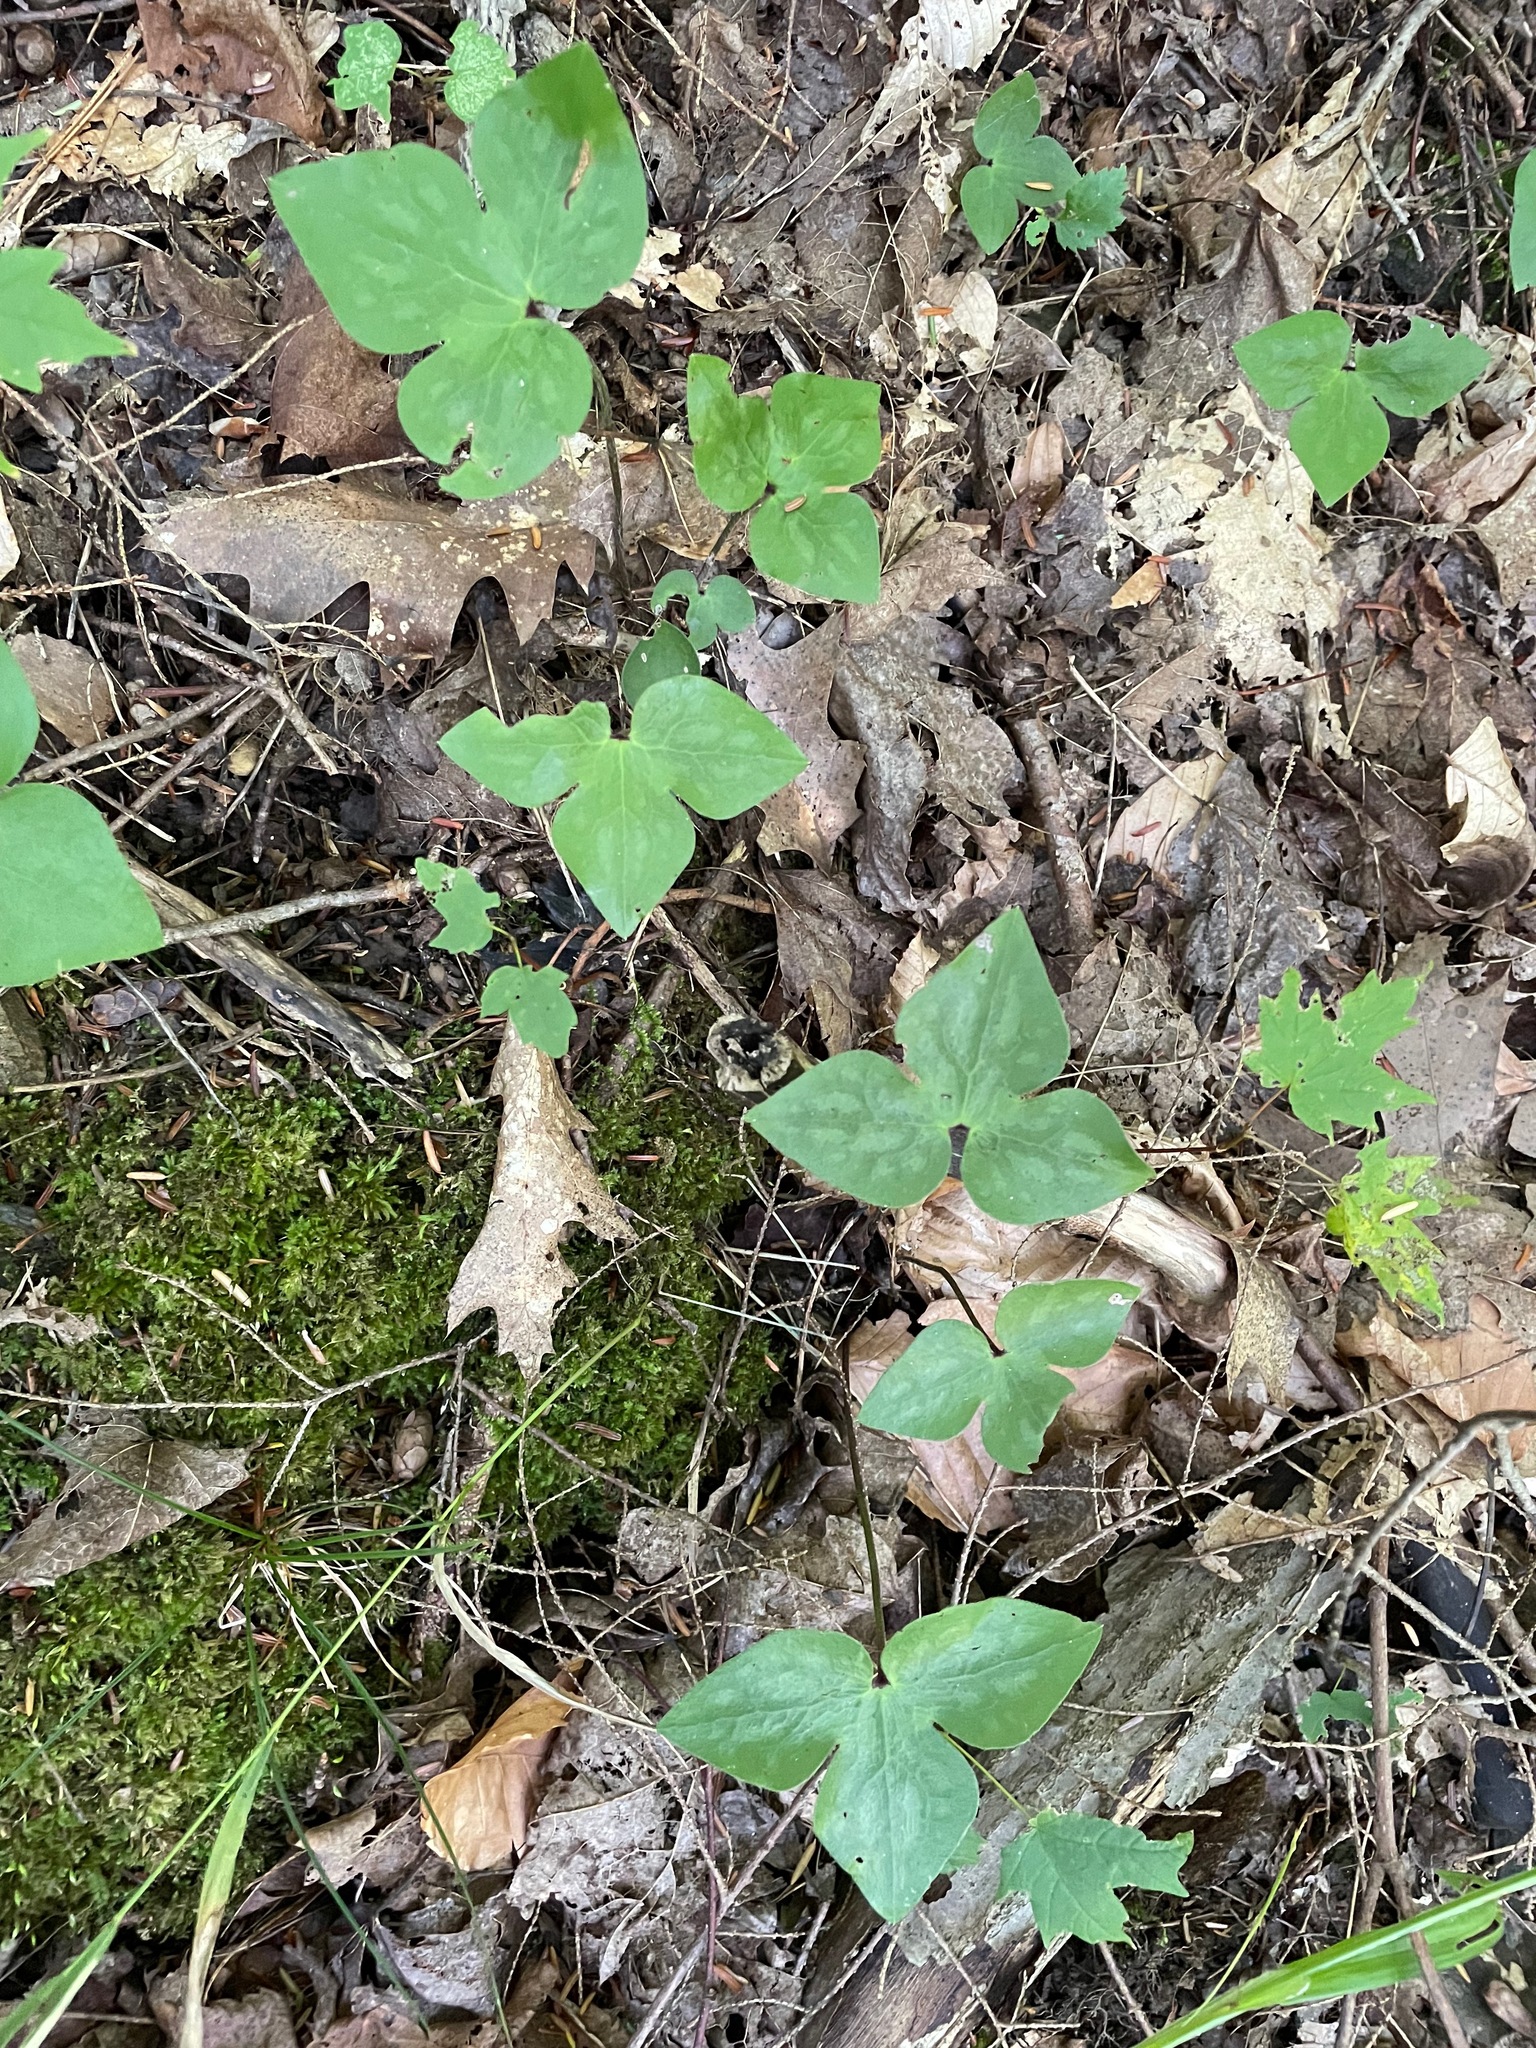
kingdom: Plantae
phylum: Tracheophyta
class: Magnoliopsida
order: Ranunculales
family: Ranunculaceae
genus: Hepatica
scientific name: Hepatica acutiloba
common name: Sharp-lobed hepatica
